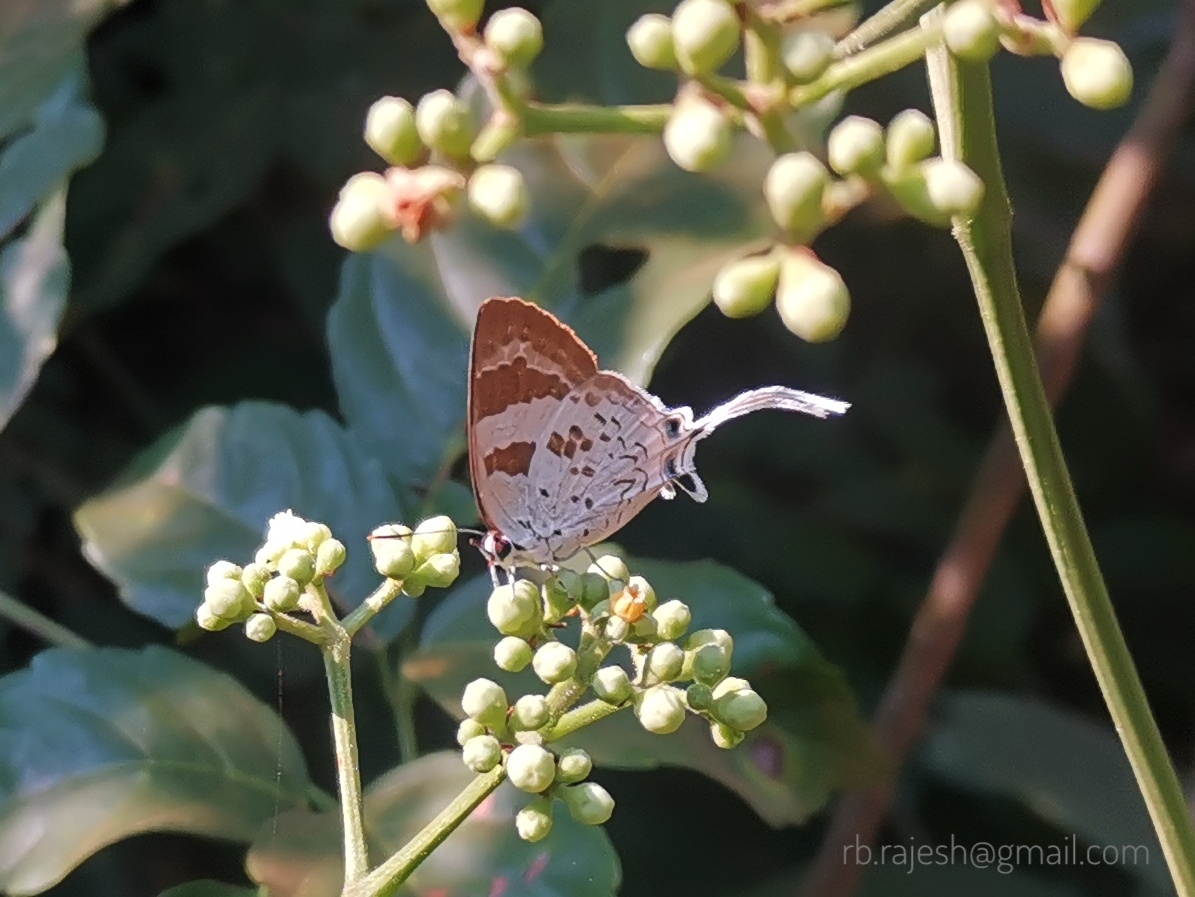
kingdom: Animalia
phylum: Arthropoda
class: Insecta
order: Lepidoptera
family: Lycaenidae
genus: Bindahara
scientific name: Bindahara phocides
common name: Sword-tailed flash
